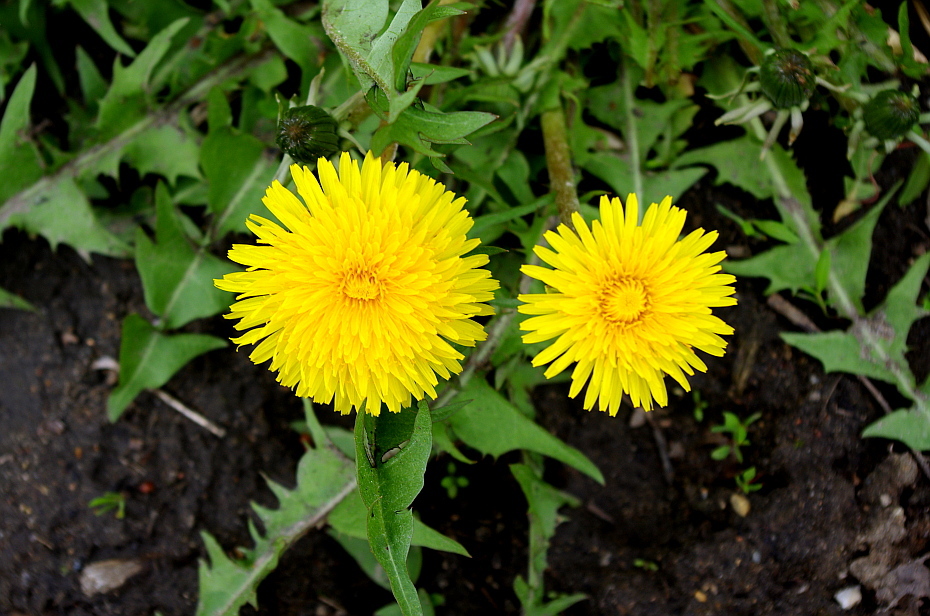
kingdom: Plantae
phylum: Tracheophyta
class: Magnoliopsida
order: Asterales
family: Asteraceae
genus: Taraxacum
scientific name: Taraxacum officinale
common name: Common dandelion
